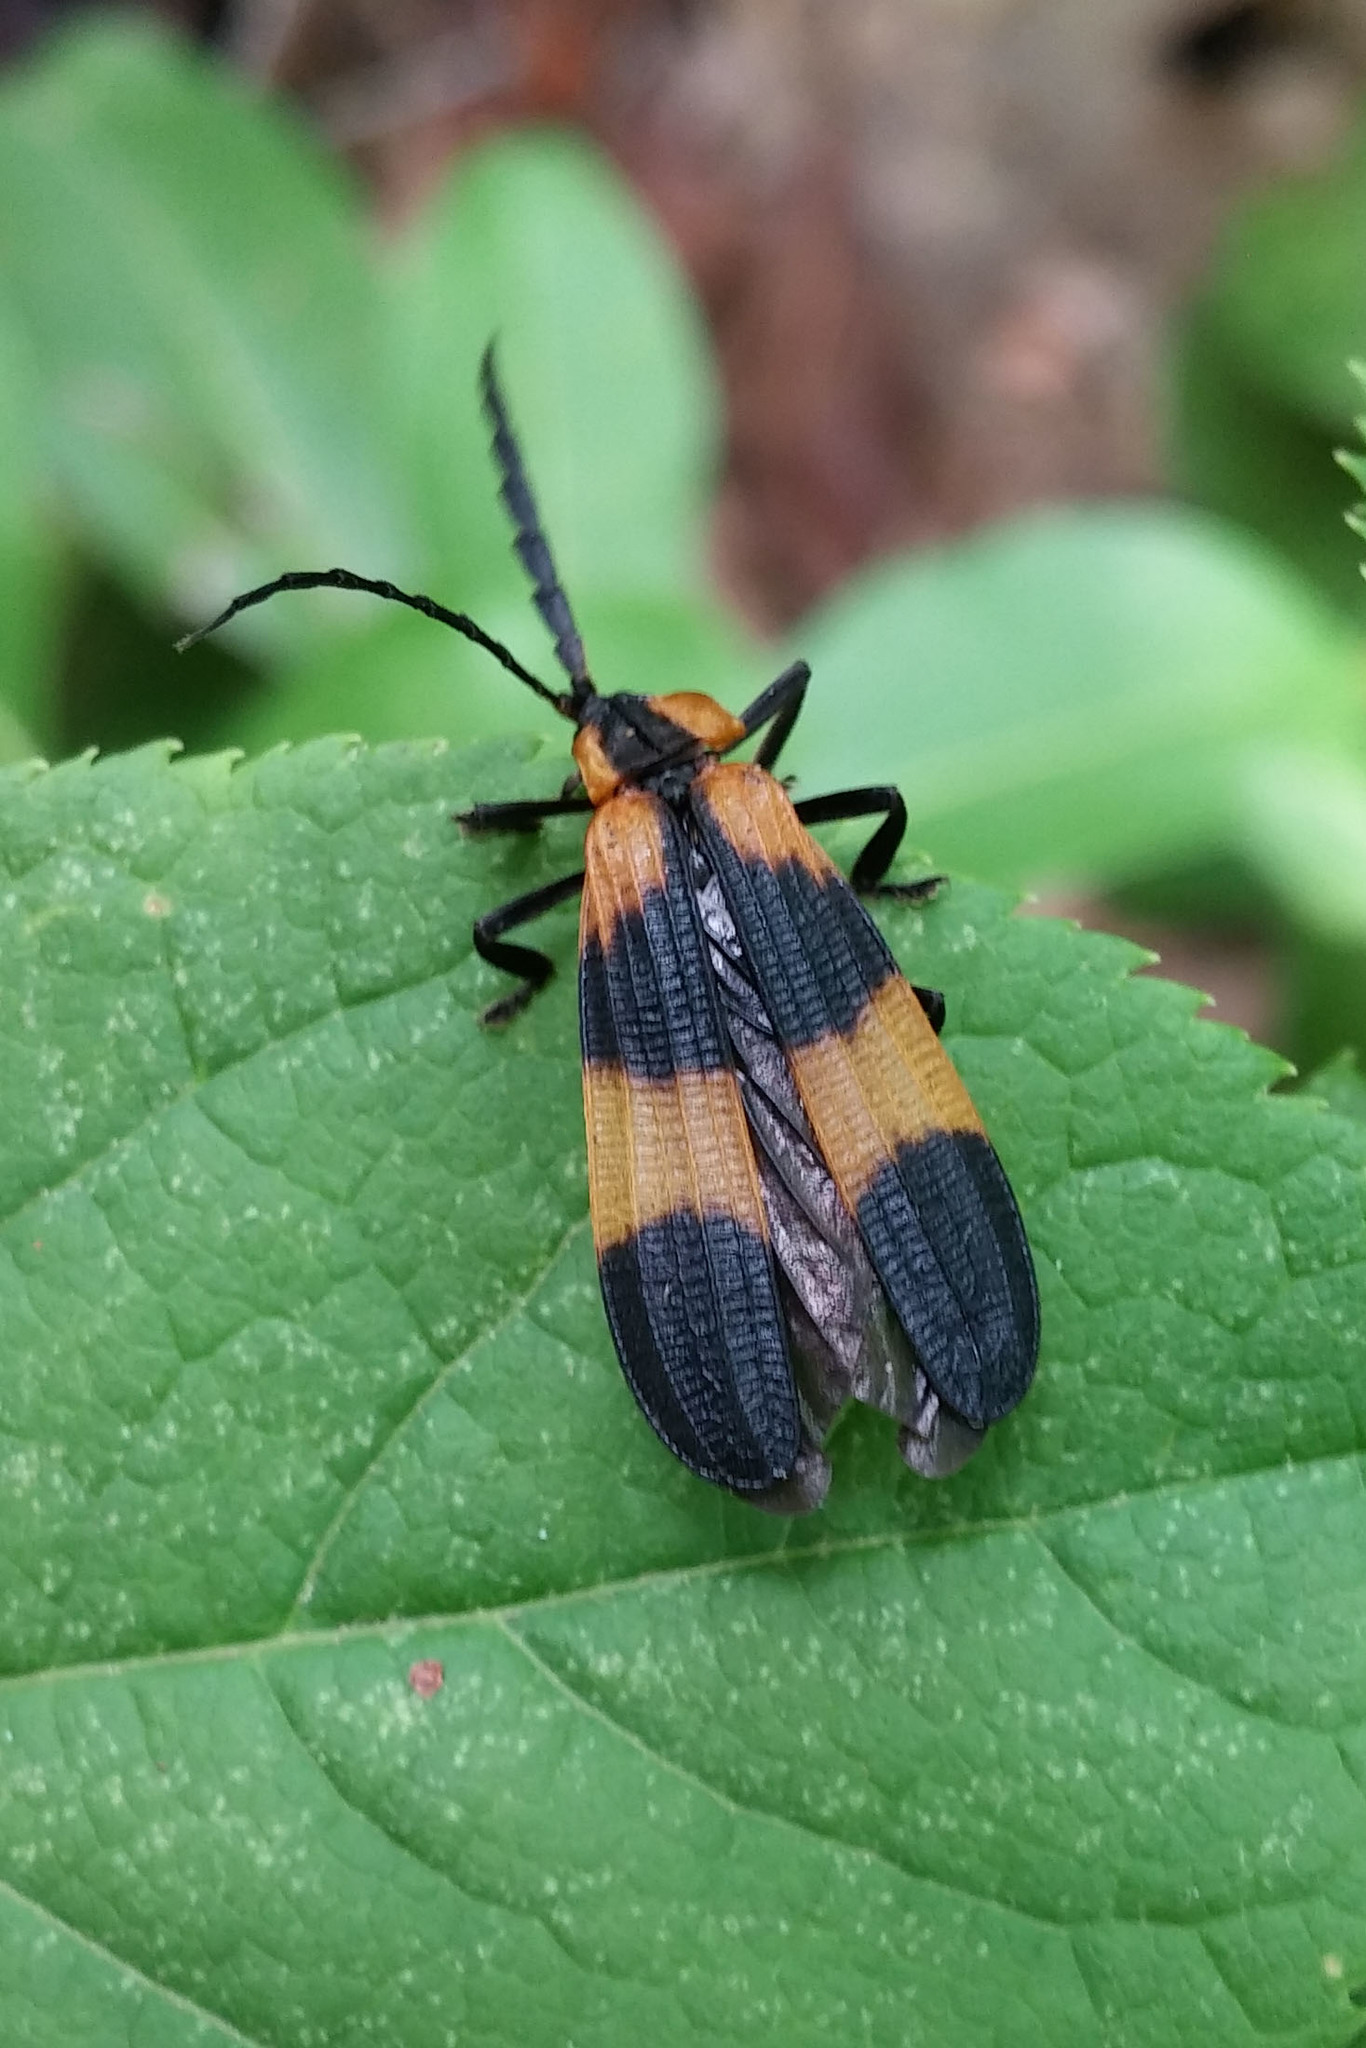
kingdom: Animalia
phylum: Arthropoda
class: Insecta
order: Coleoptera
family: Lycidae
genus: Calopteron
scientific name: Calopteron reticulatum
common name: Banded net-winged beetle
